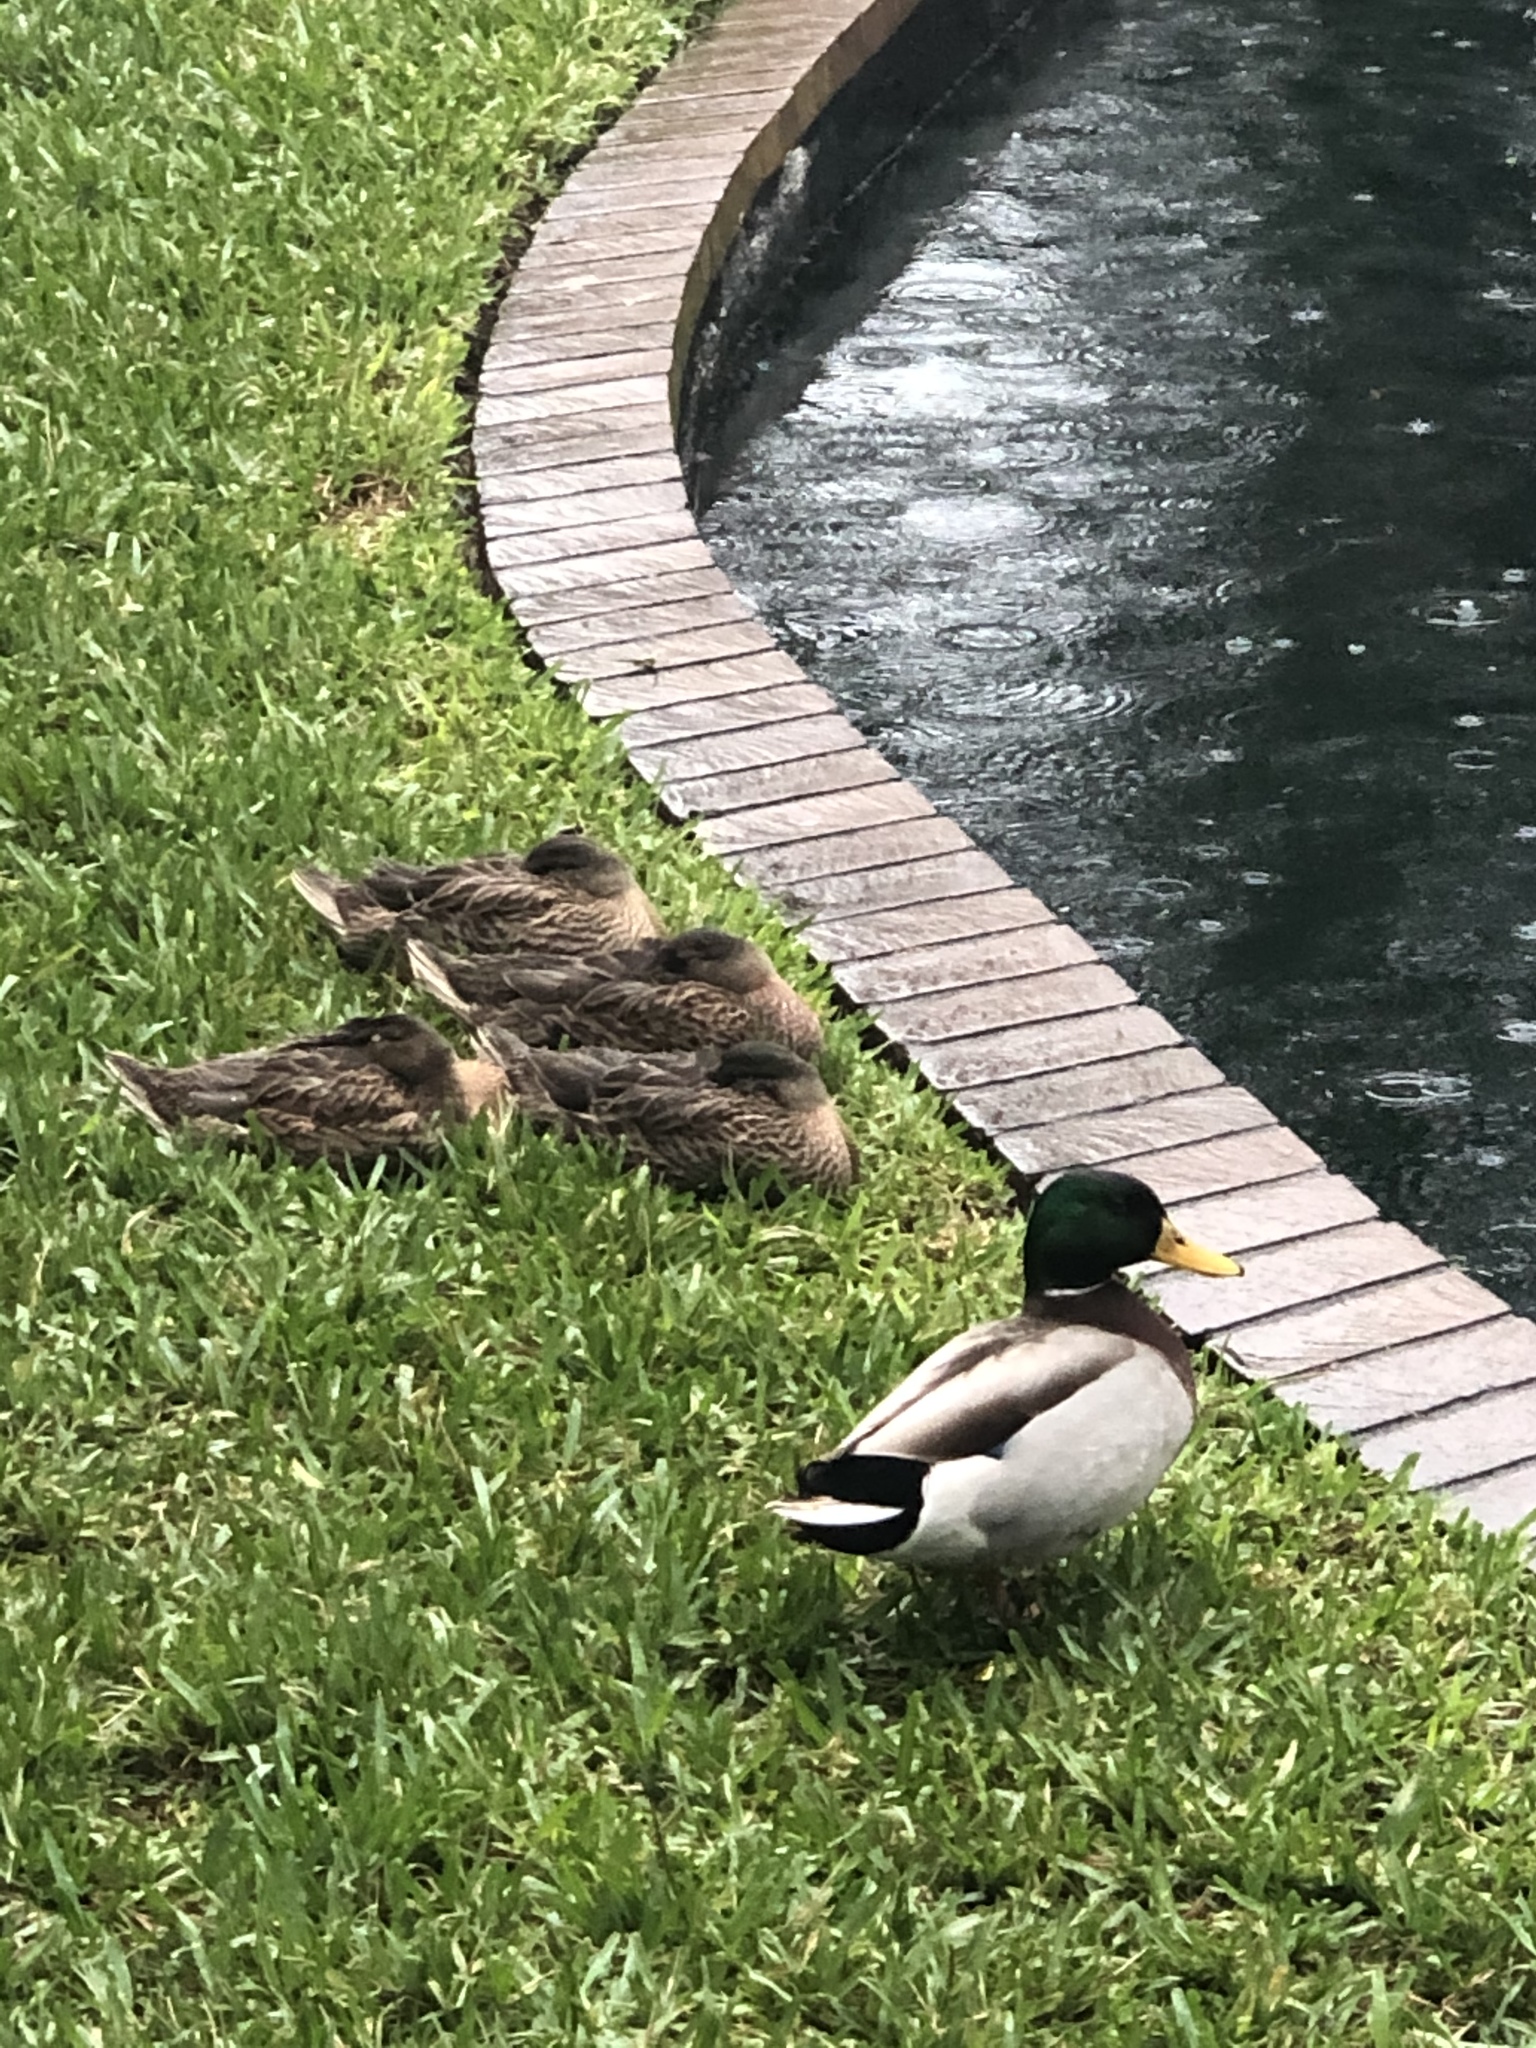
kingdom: Animalia
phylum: Chordata
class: Aves
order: Anseriformes
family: Anatidae
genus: Anas
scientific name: Anas platyrhynchos
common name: Mallard
